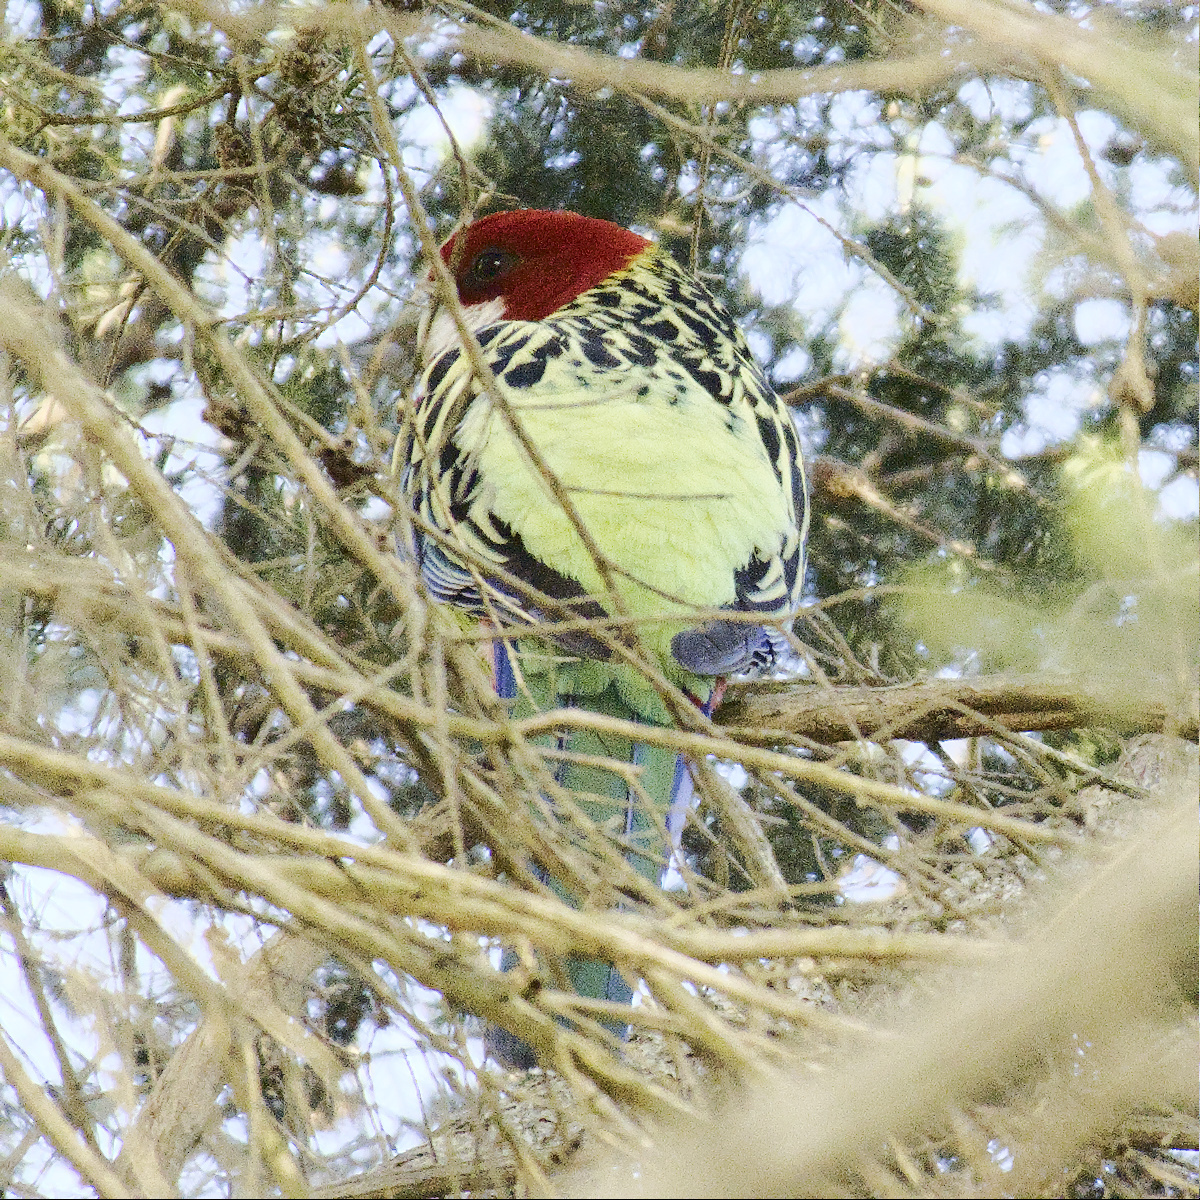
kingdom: Animalia
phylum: Chordata
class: Aves
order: Psittaciformes
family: Psittacidae
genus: Platycercus
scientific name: Platycercus eximius
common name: Eastern rosella
